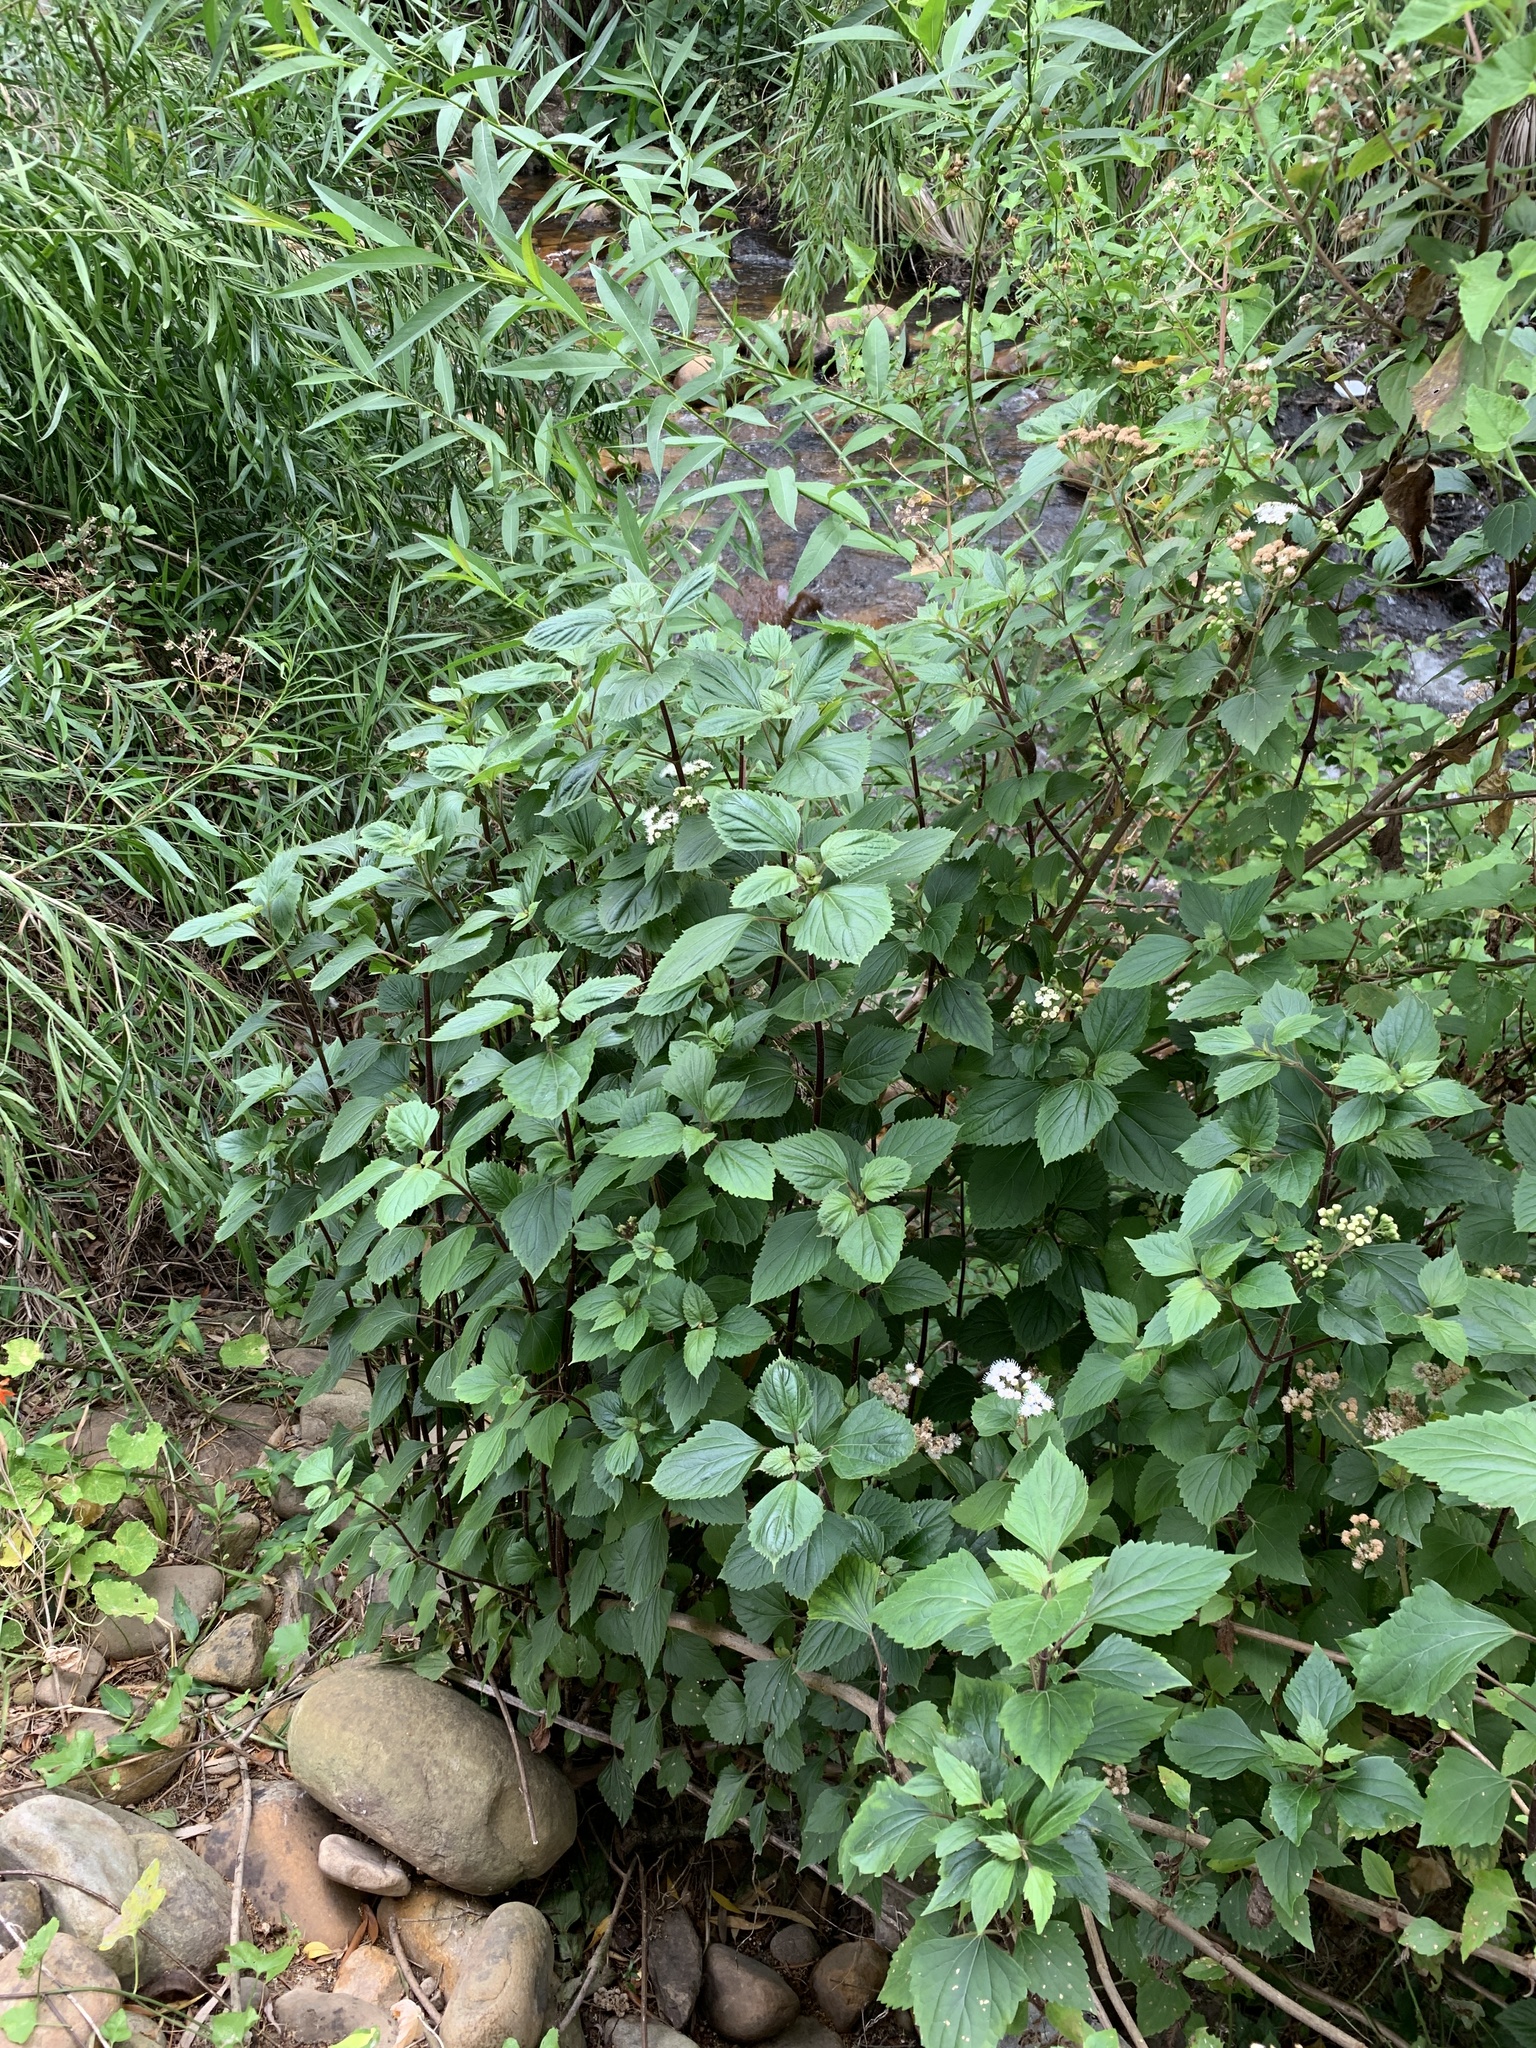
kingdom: Plantae
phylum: Tracheophyta
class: Magnoliopsida
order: Asterales
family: Asteraceae
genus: Ageratina
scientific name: Ageratina adenophora
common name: Sticky snakeroot
